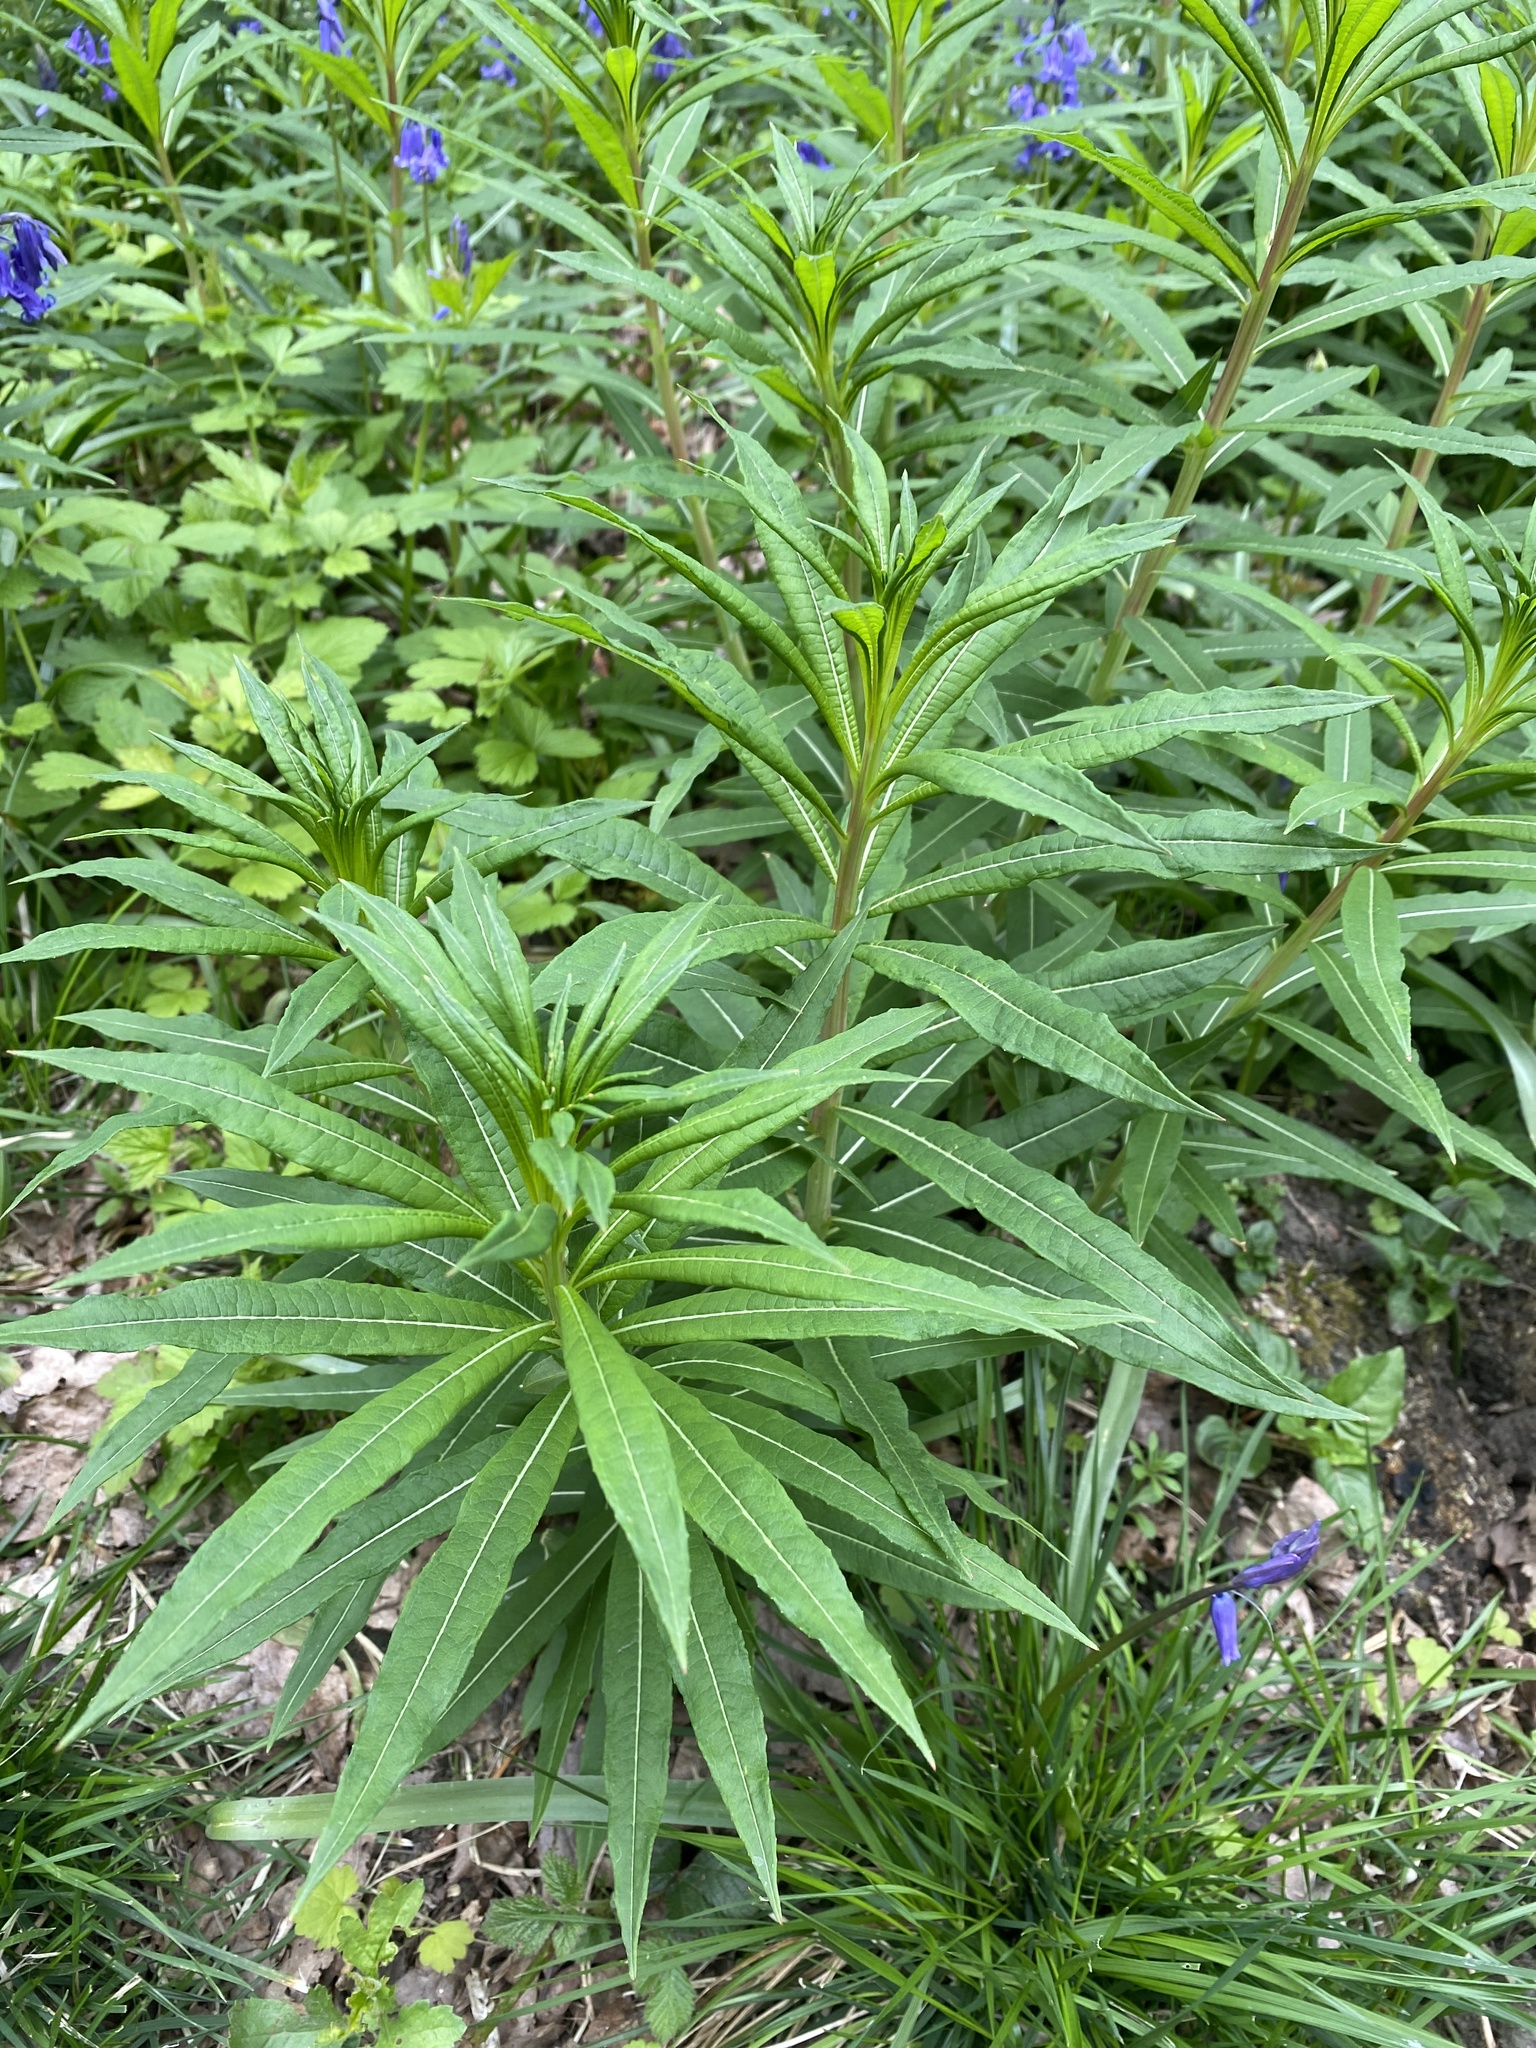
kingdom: Plantae
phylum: Tracheophyta
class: Magnoliopsida
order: Myrtales
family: Onagraceae
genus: Chamaenerion
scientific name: Chamaenerion angustifolium
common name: Fireweed
